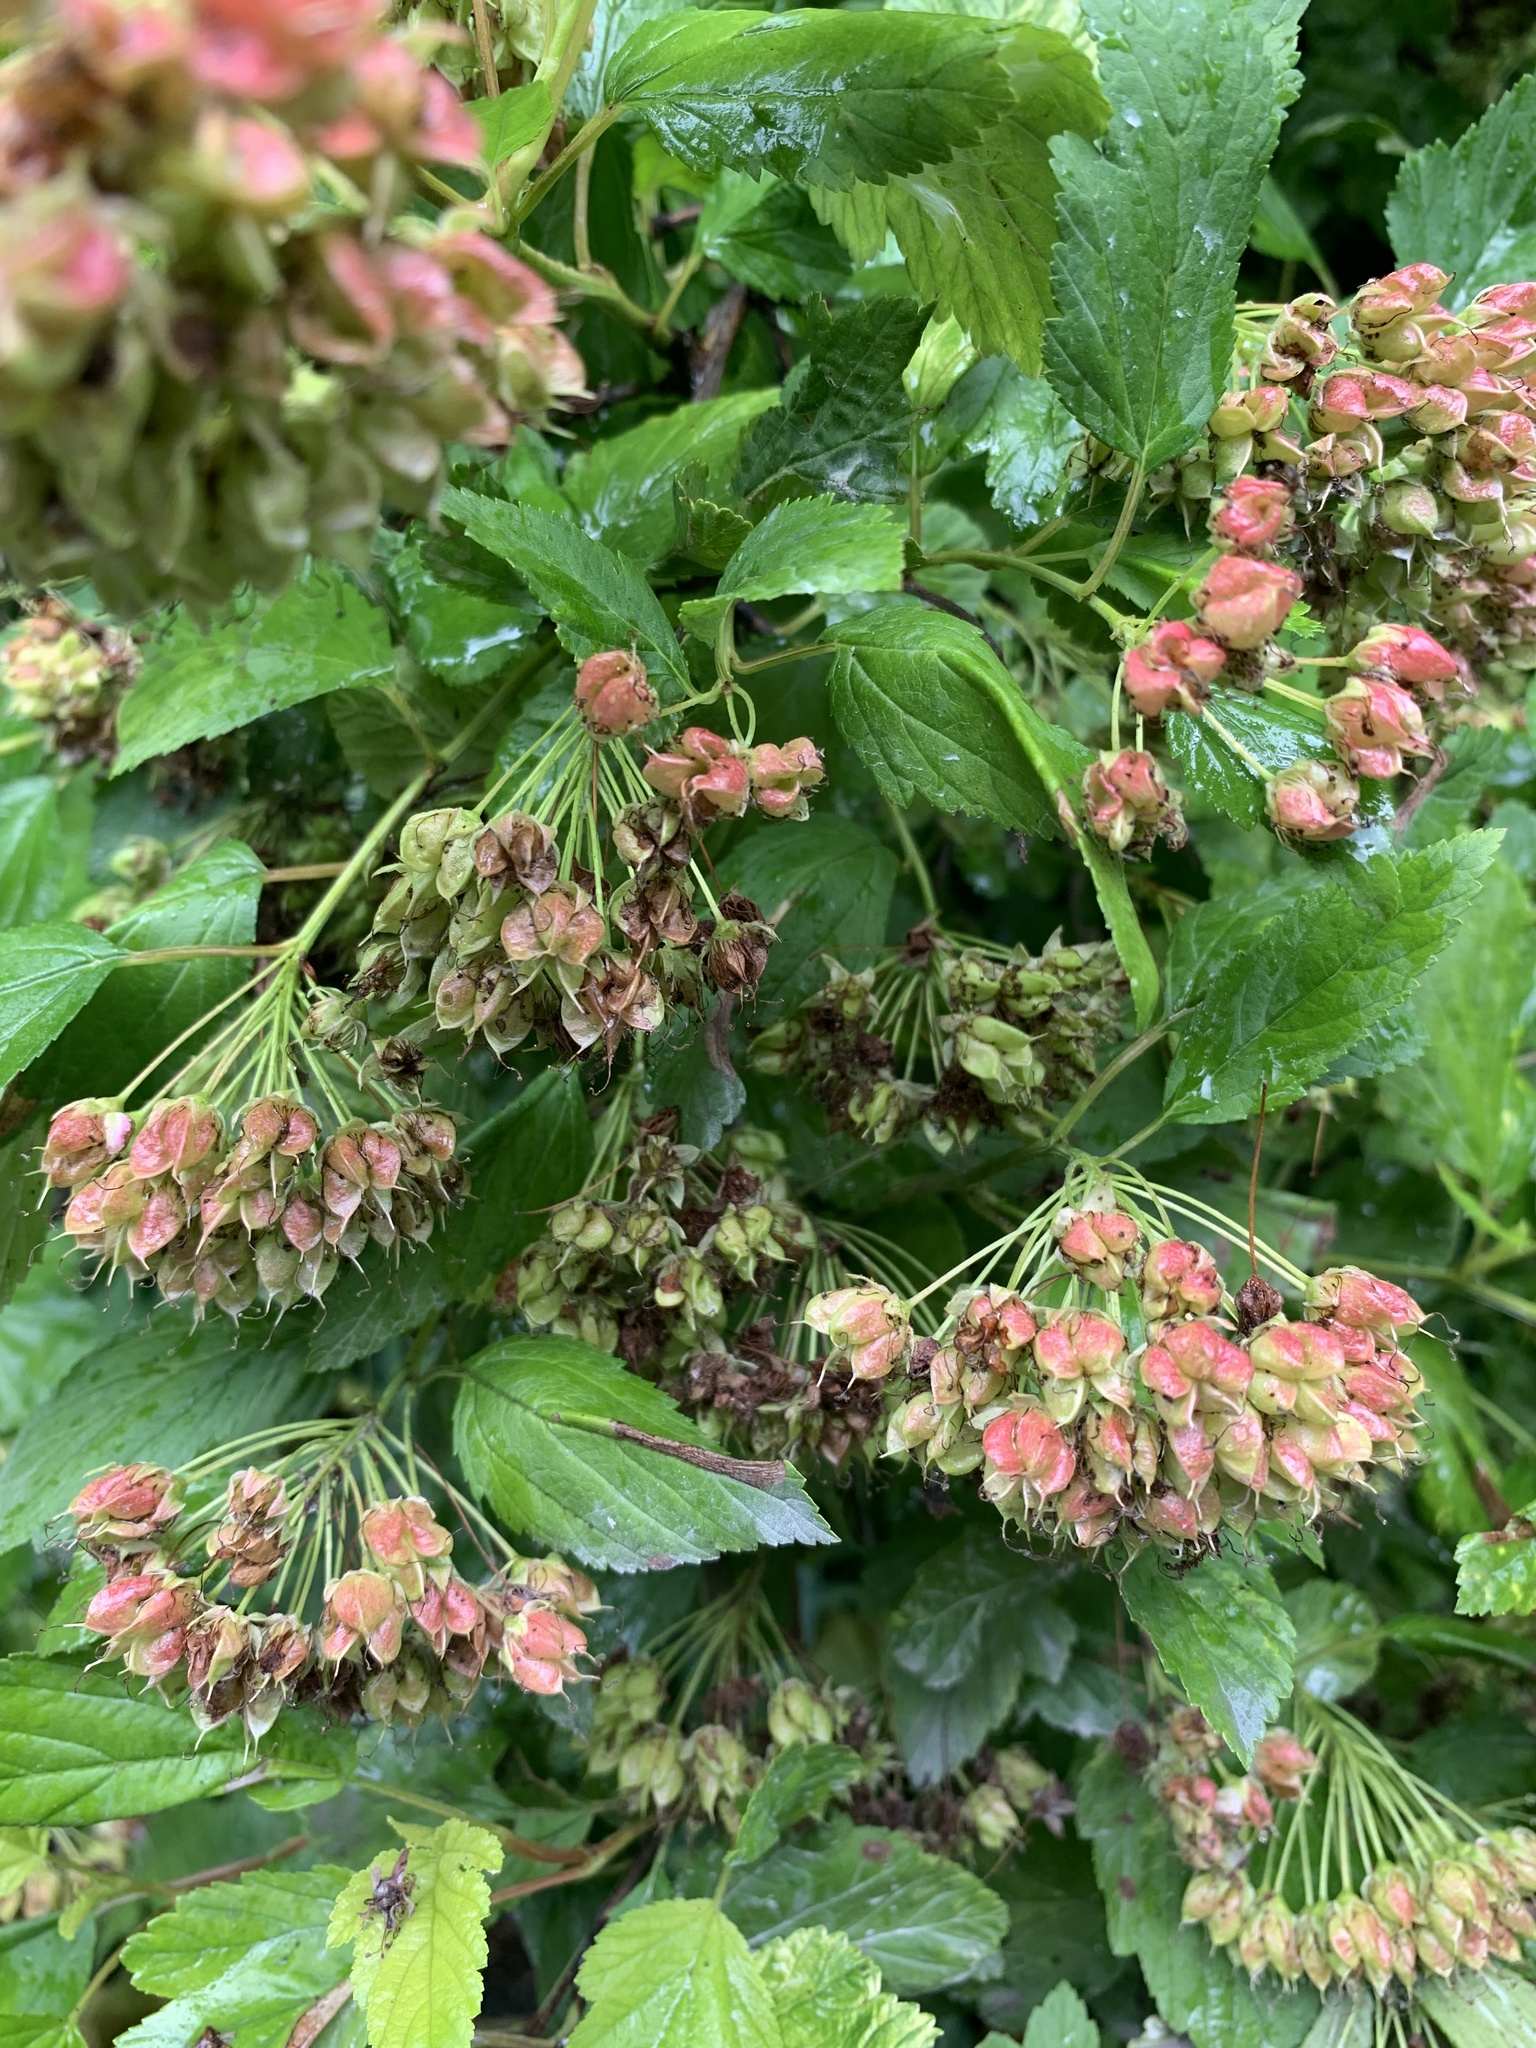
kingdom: Plantae
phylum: Tracheophyta
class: Magnoliopsida
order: Rosales
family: Rosaceae
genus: Physocarpus
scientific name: Physocarpus opulifolius
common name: Ninebark
